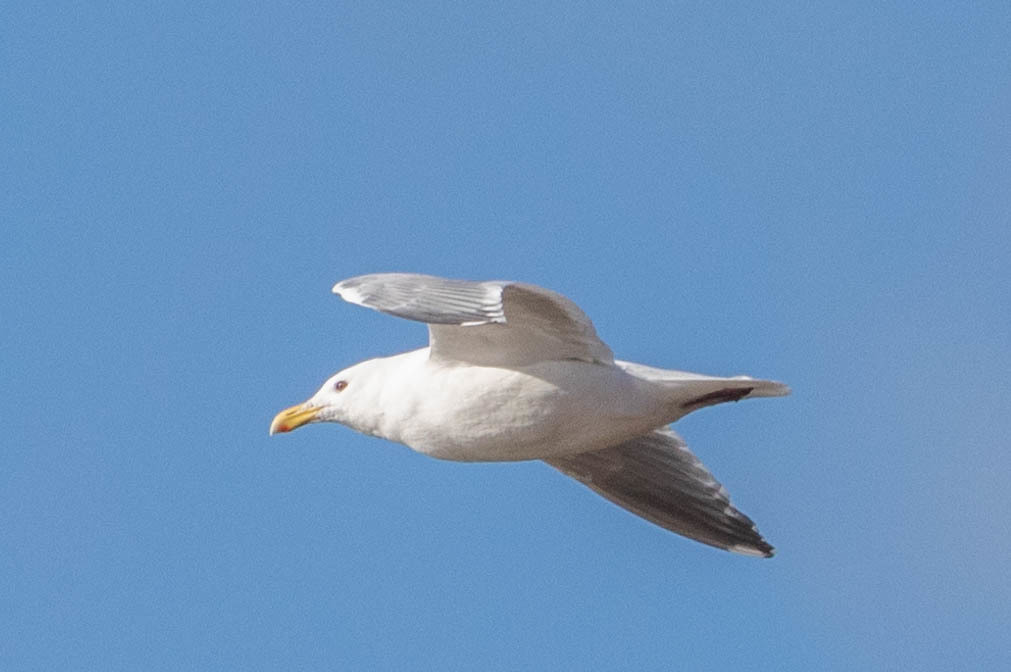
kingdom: Animalia
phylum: Chordata
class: Aves
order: Charadriiformes
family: Laridae
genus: Larus
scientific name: Larus argentatus
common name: Herring gull
